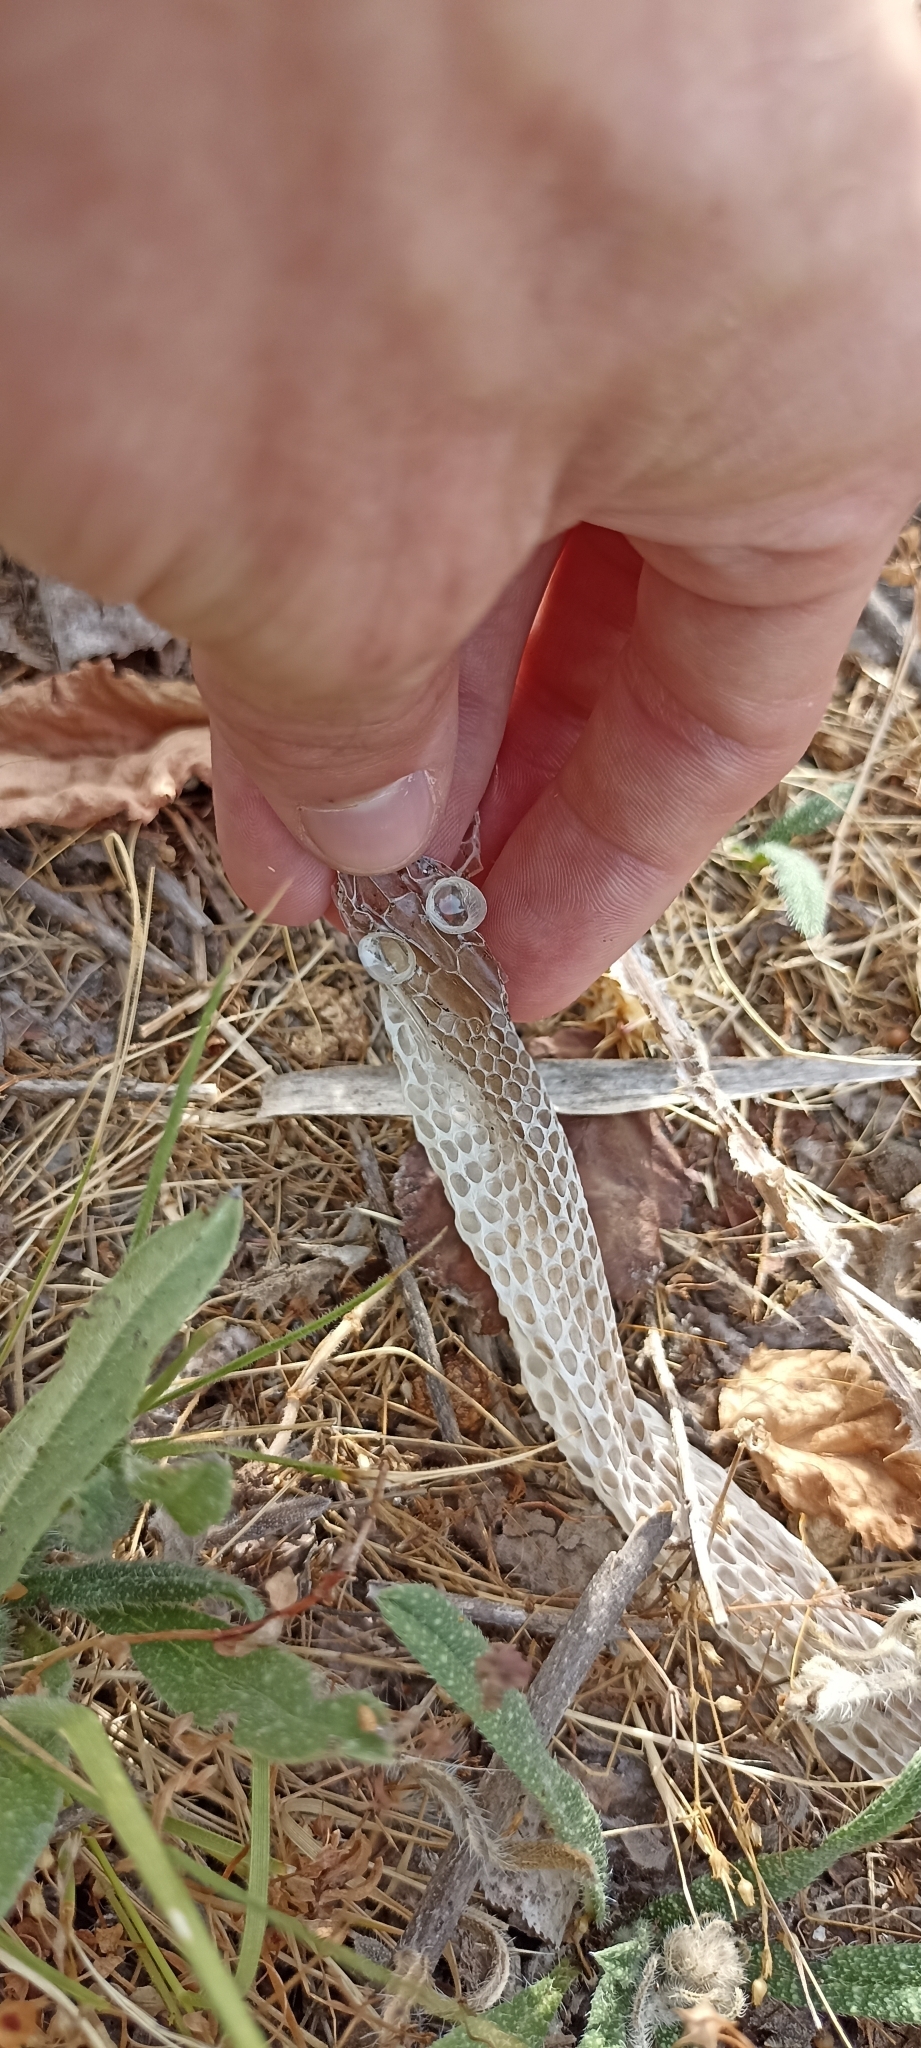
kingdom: Animalia
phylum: Chordata
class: Squamata
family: Psammophiidae
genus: Malpolon
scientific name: Malpolon monspessulanus
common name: Montpellier snake
